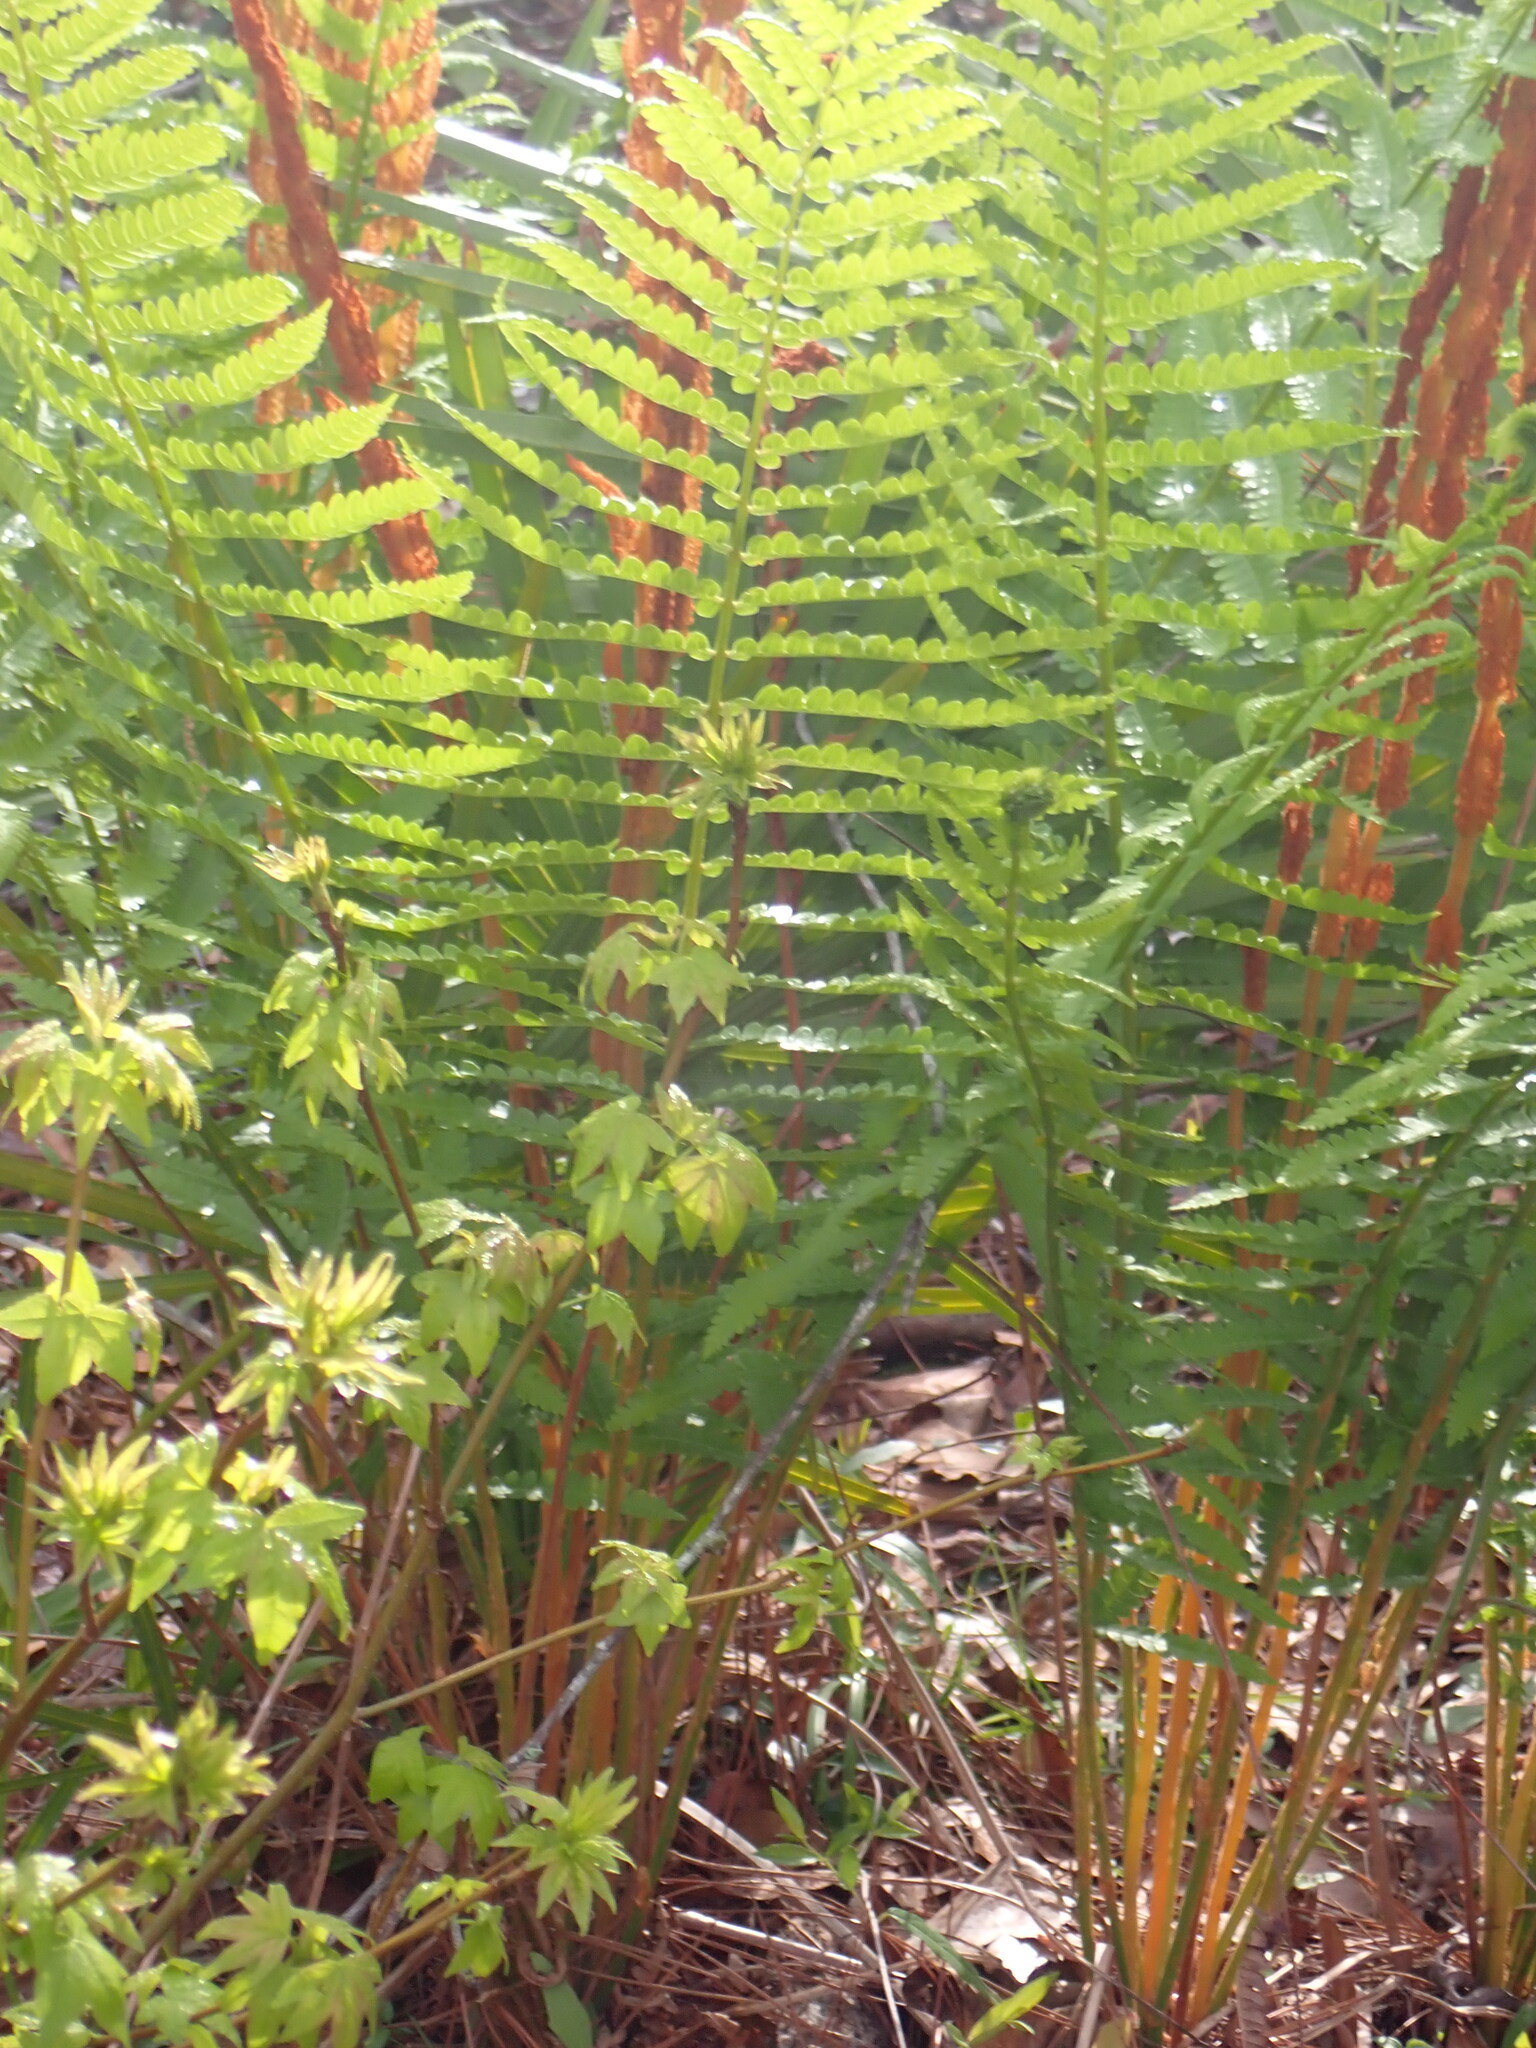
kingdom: Plantae
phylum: Tracheophyta
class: Polypodiopsida
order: Osmundales
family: Osmundaceae
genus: Osmundastrum
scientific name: Osmundastrum cinnamomeum
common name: Cinnamon fern
